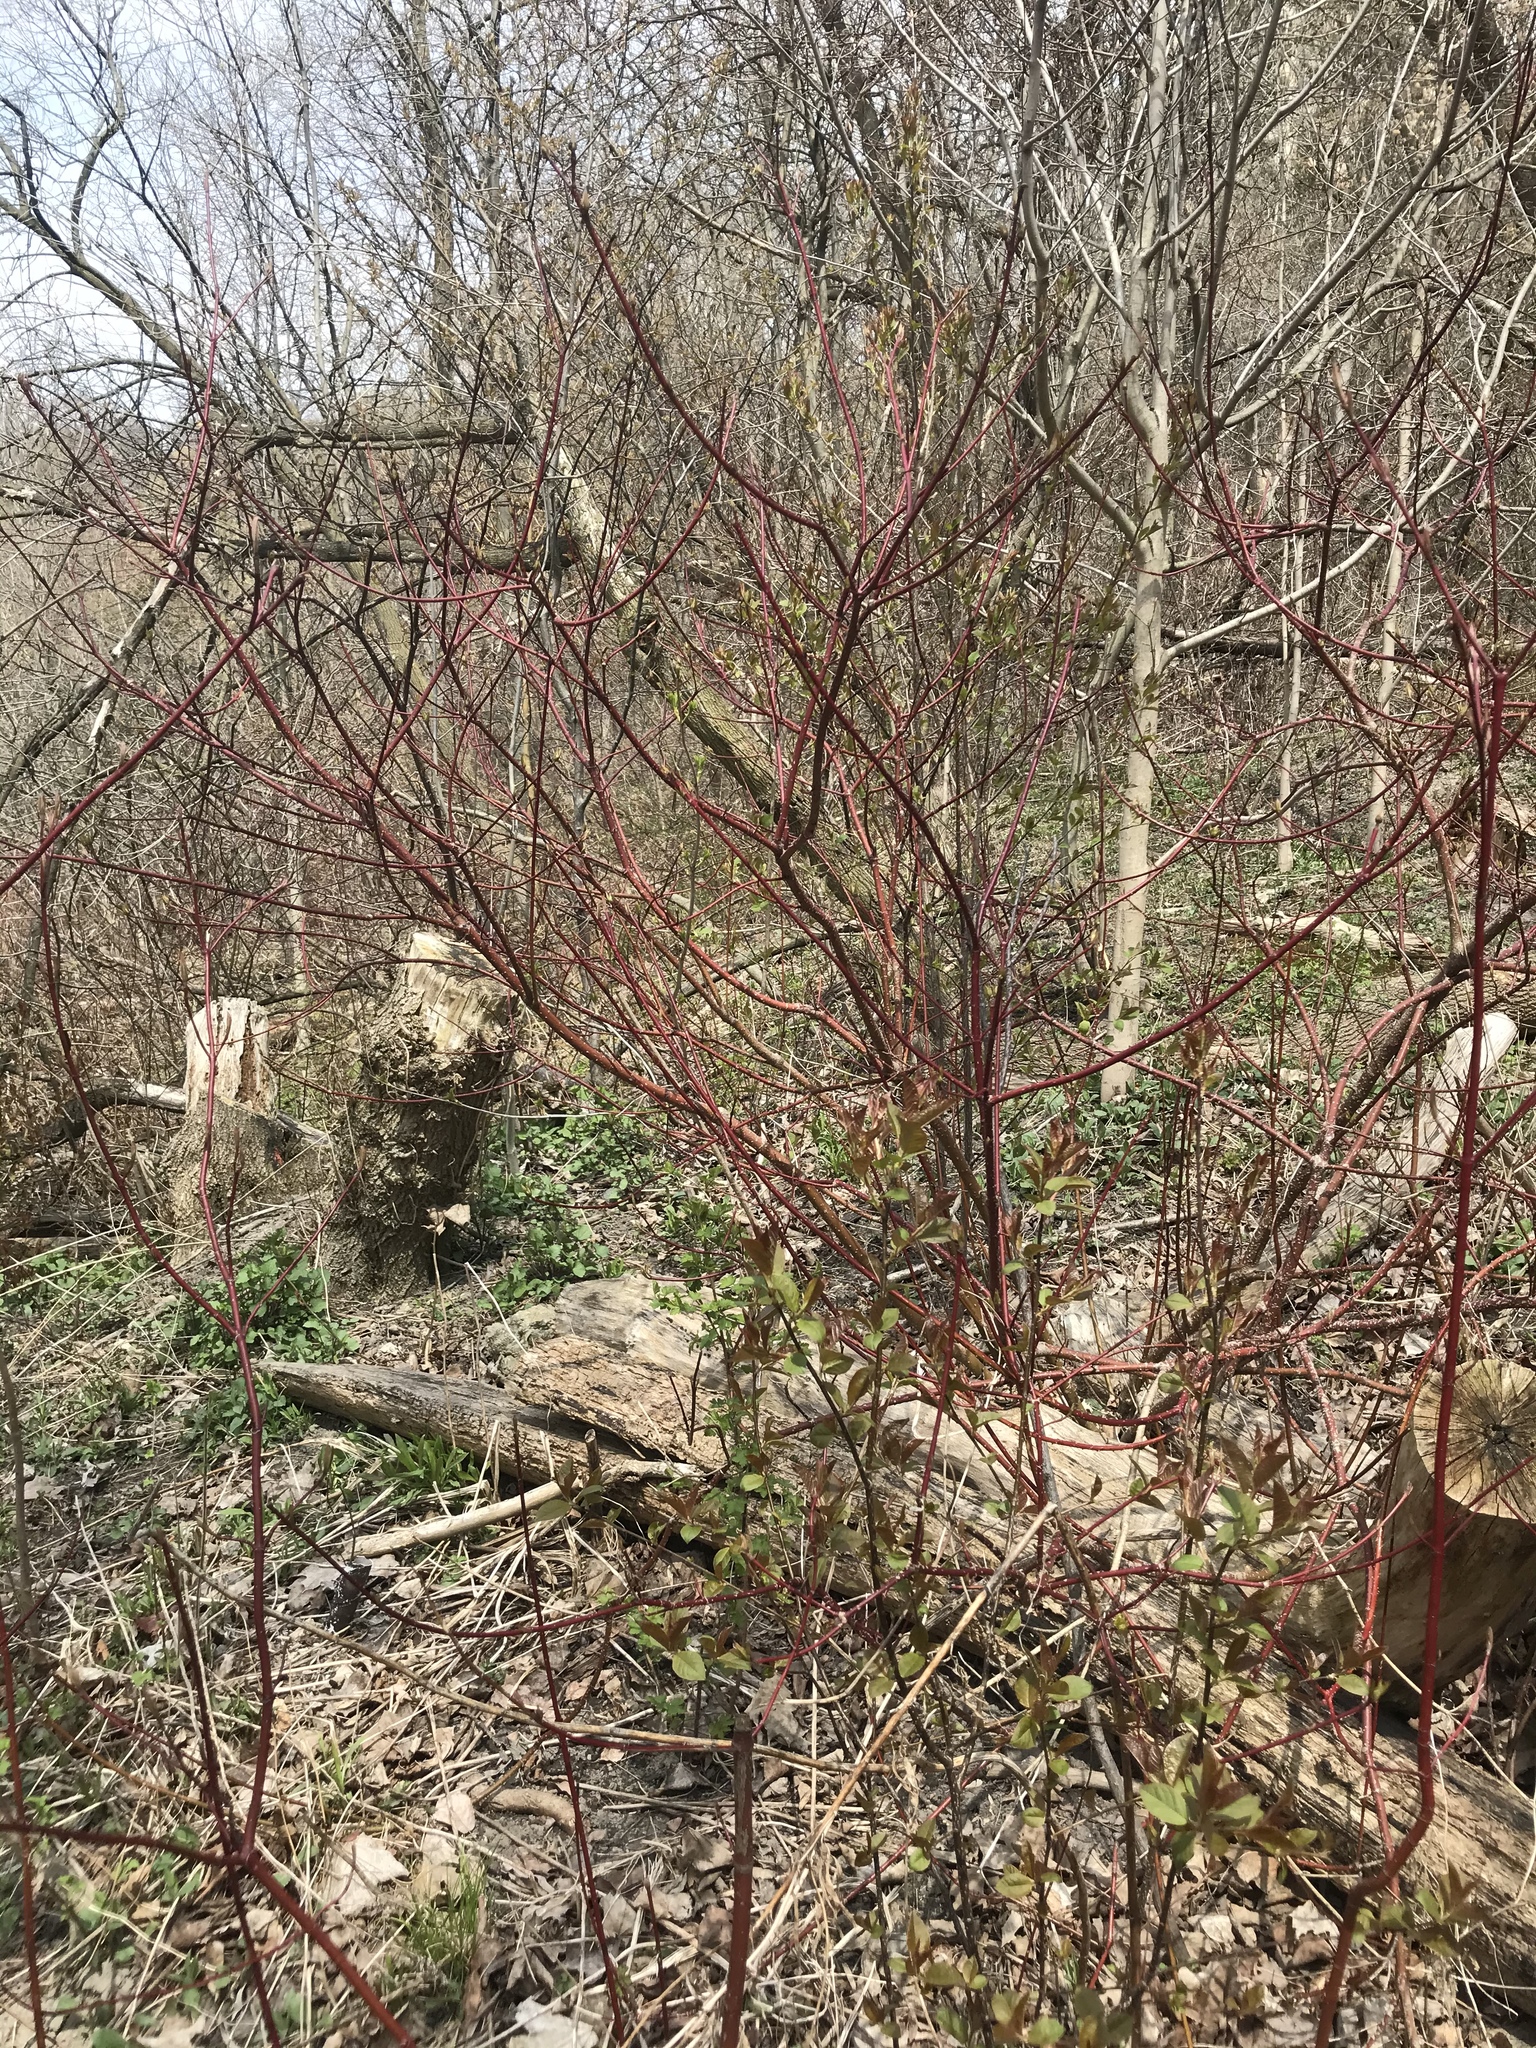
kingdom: Plantae
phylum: Tracheophyta
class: Magnoliopsida
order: Cornales
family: Cornaceae
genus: Cornus
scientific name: Cornus sericea
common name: Red-osier dogwood
